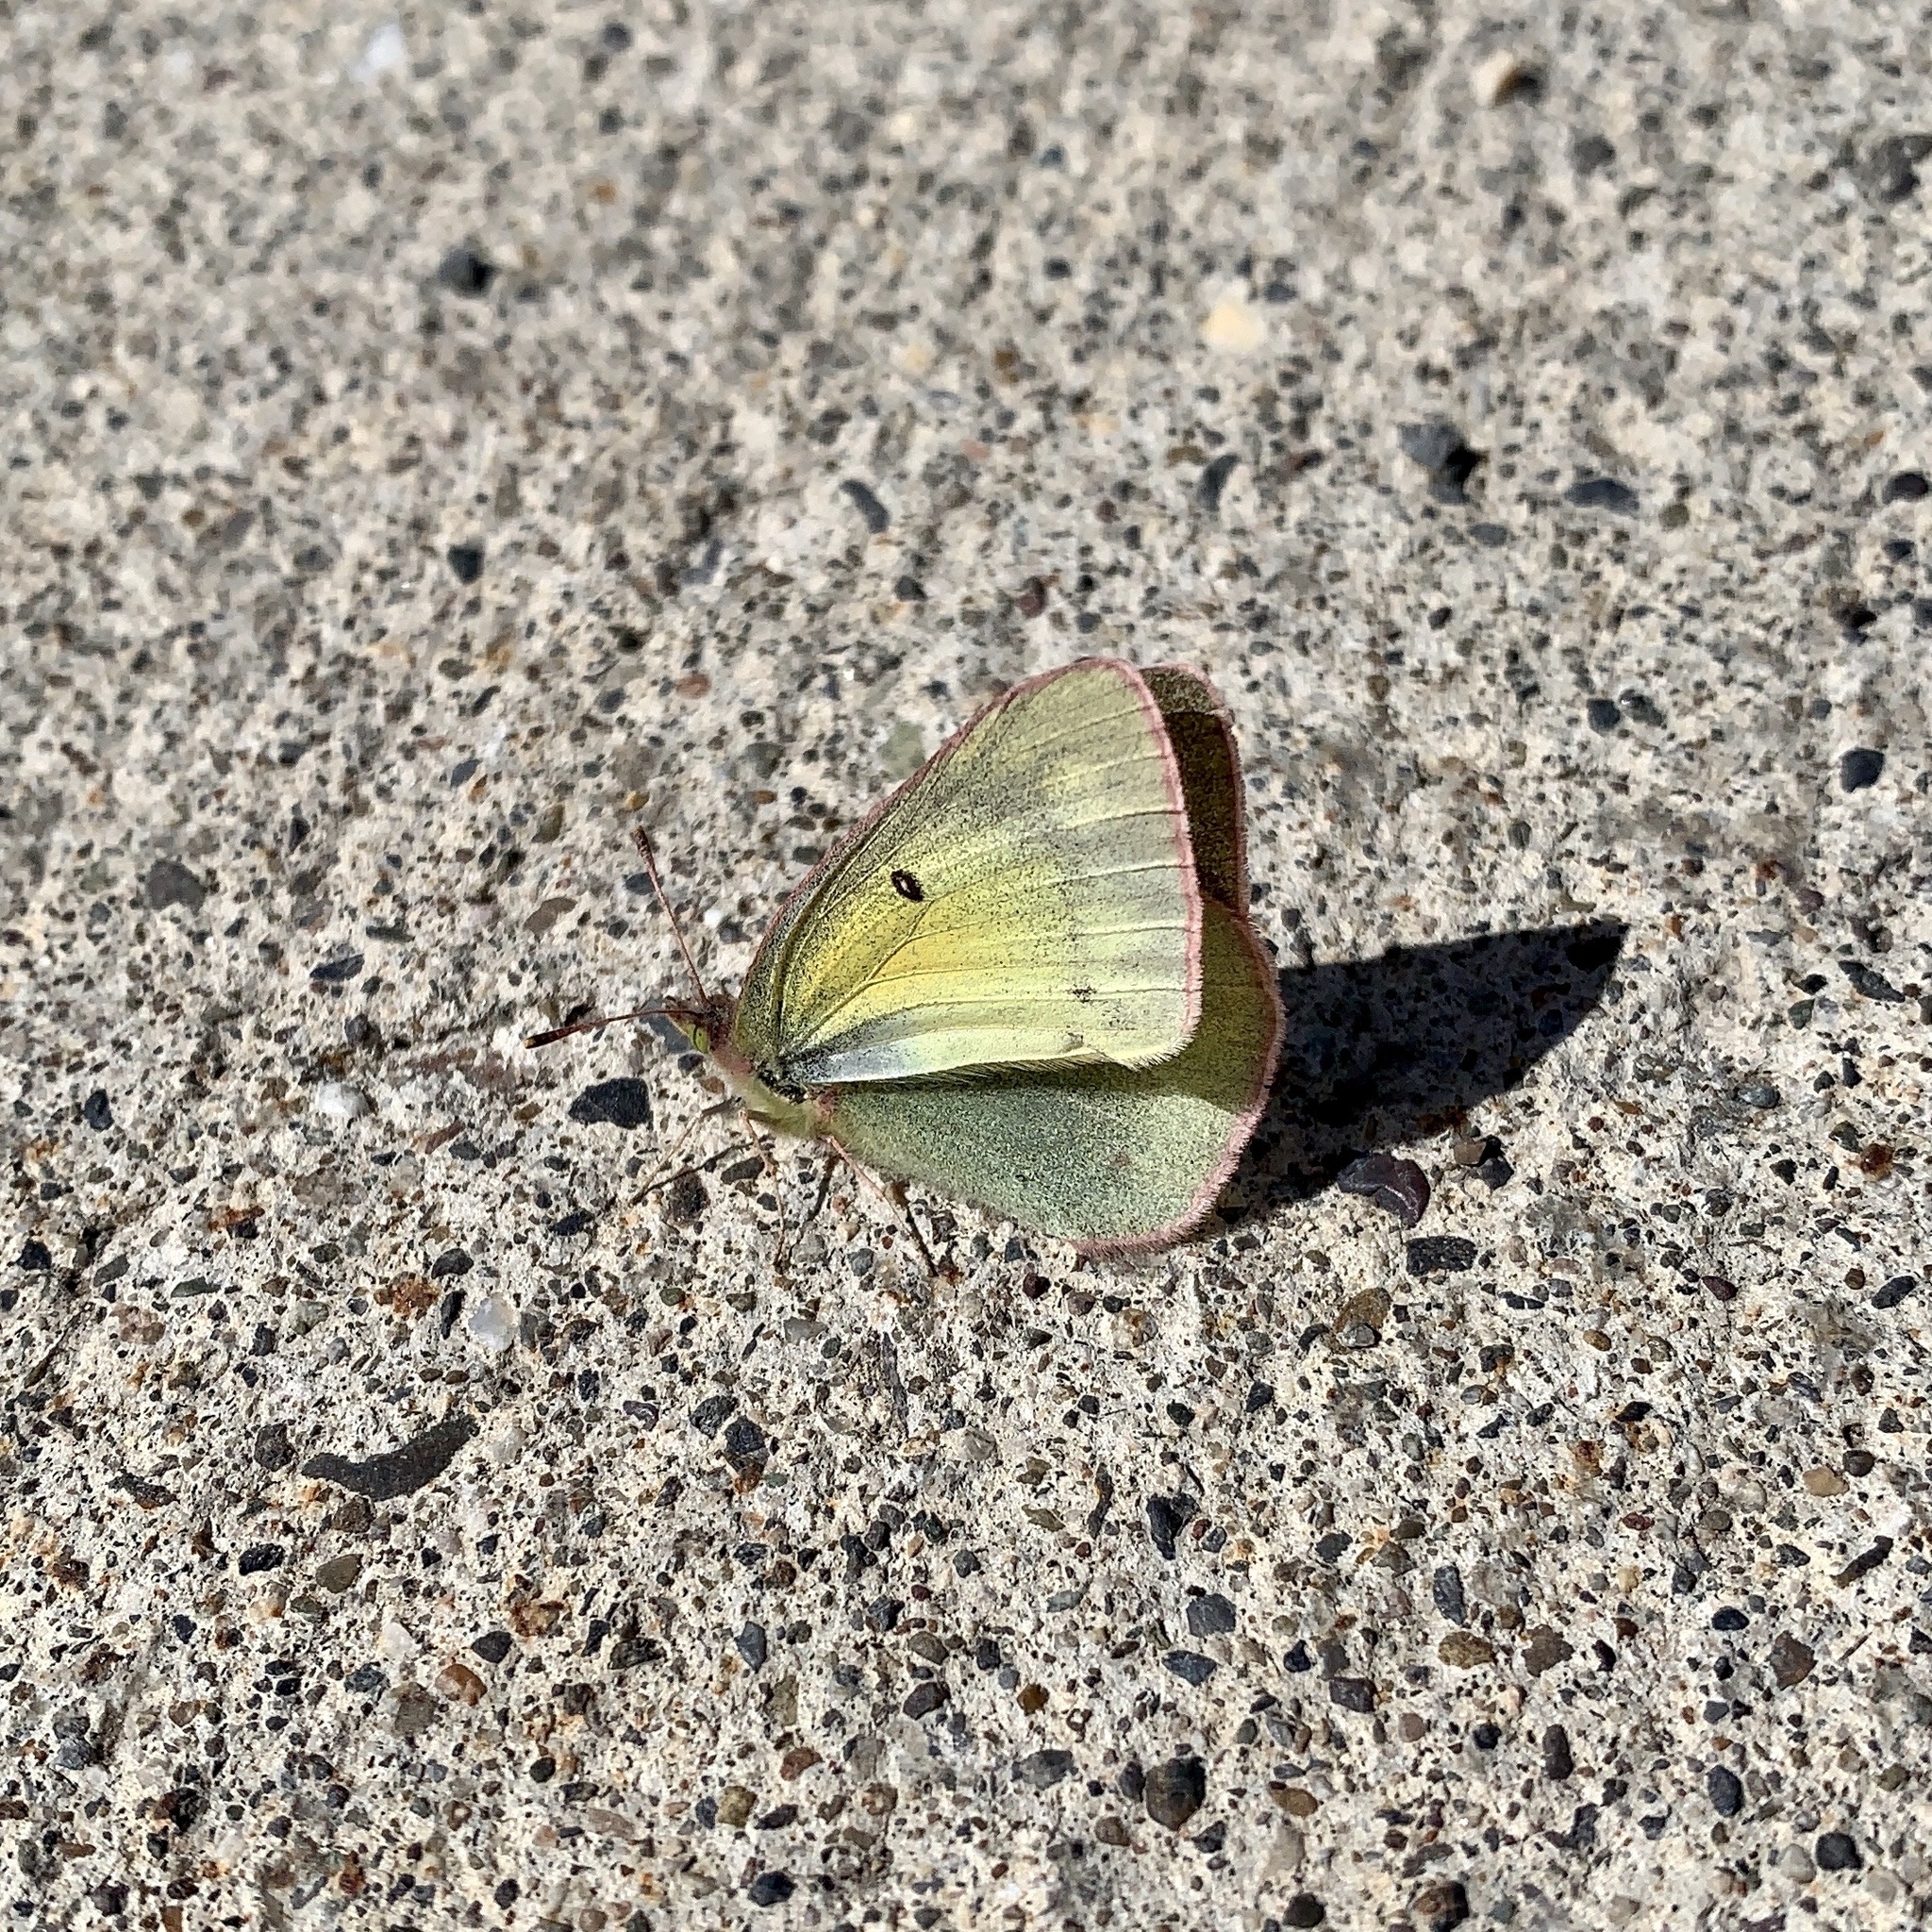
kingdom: Animalia
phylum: Arthropoda
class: Insecta
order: Lepidoptera
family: Pieridae
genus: Colias
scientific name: Colias philodice
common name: Clouded sulphur
